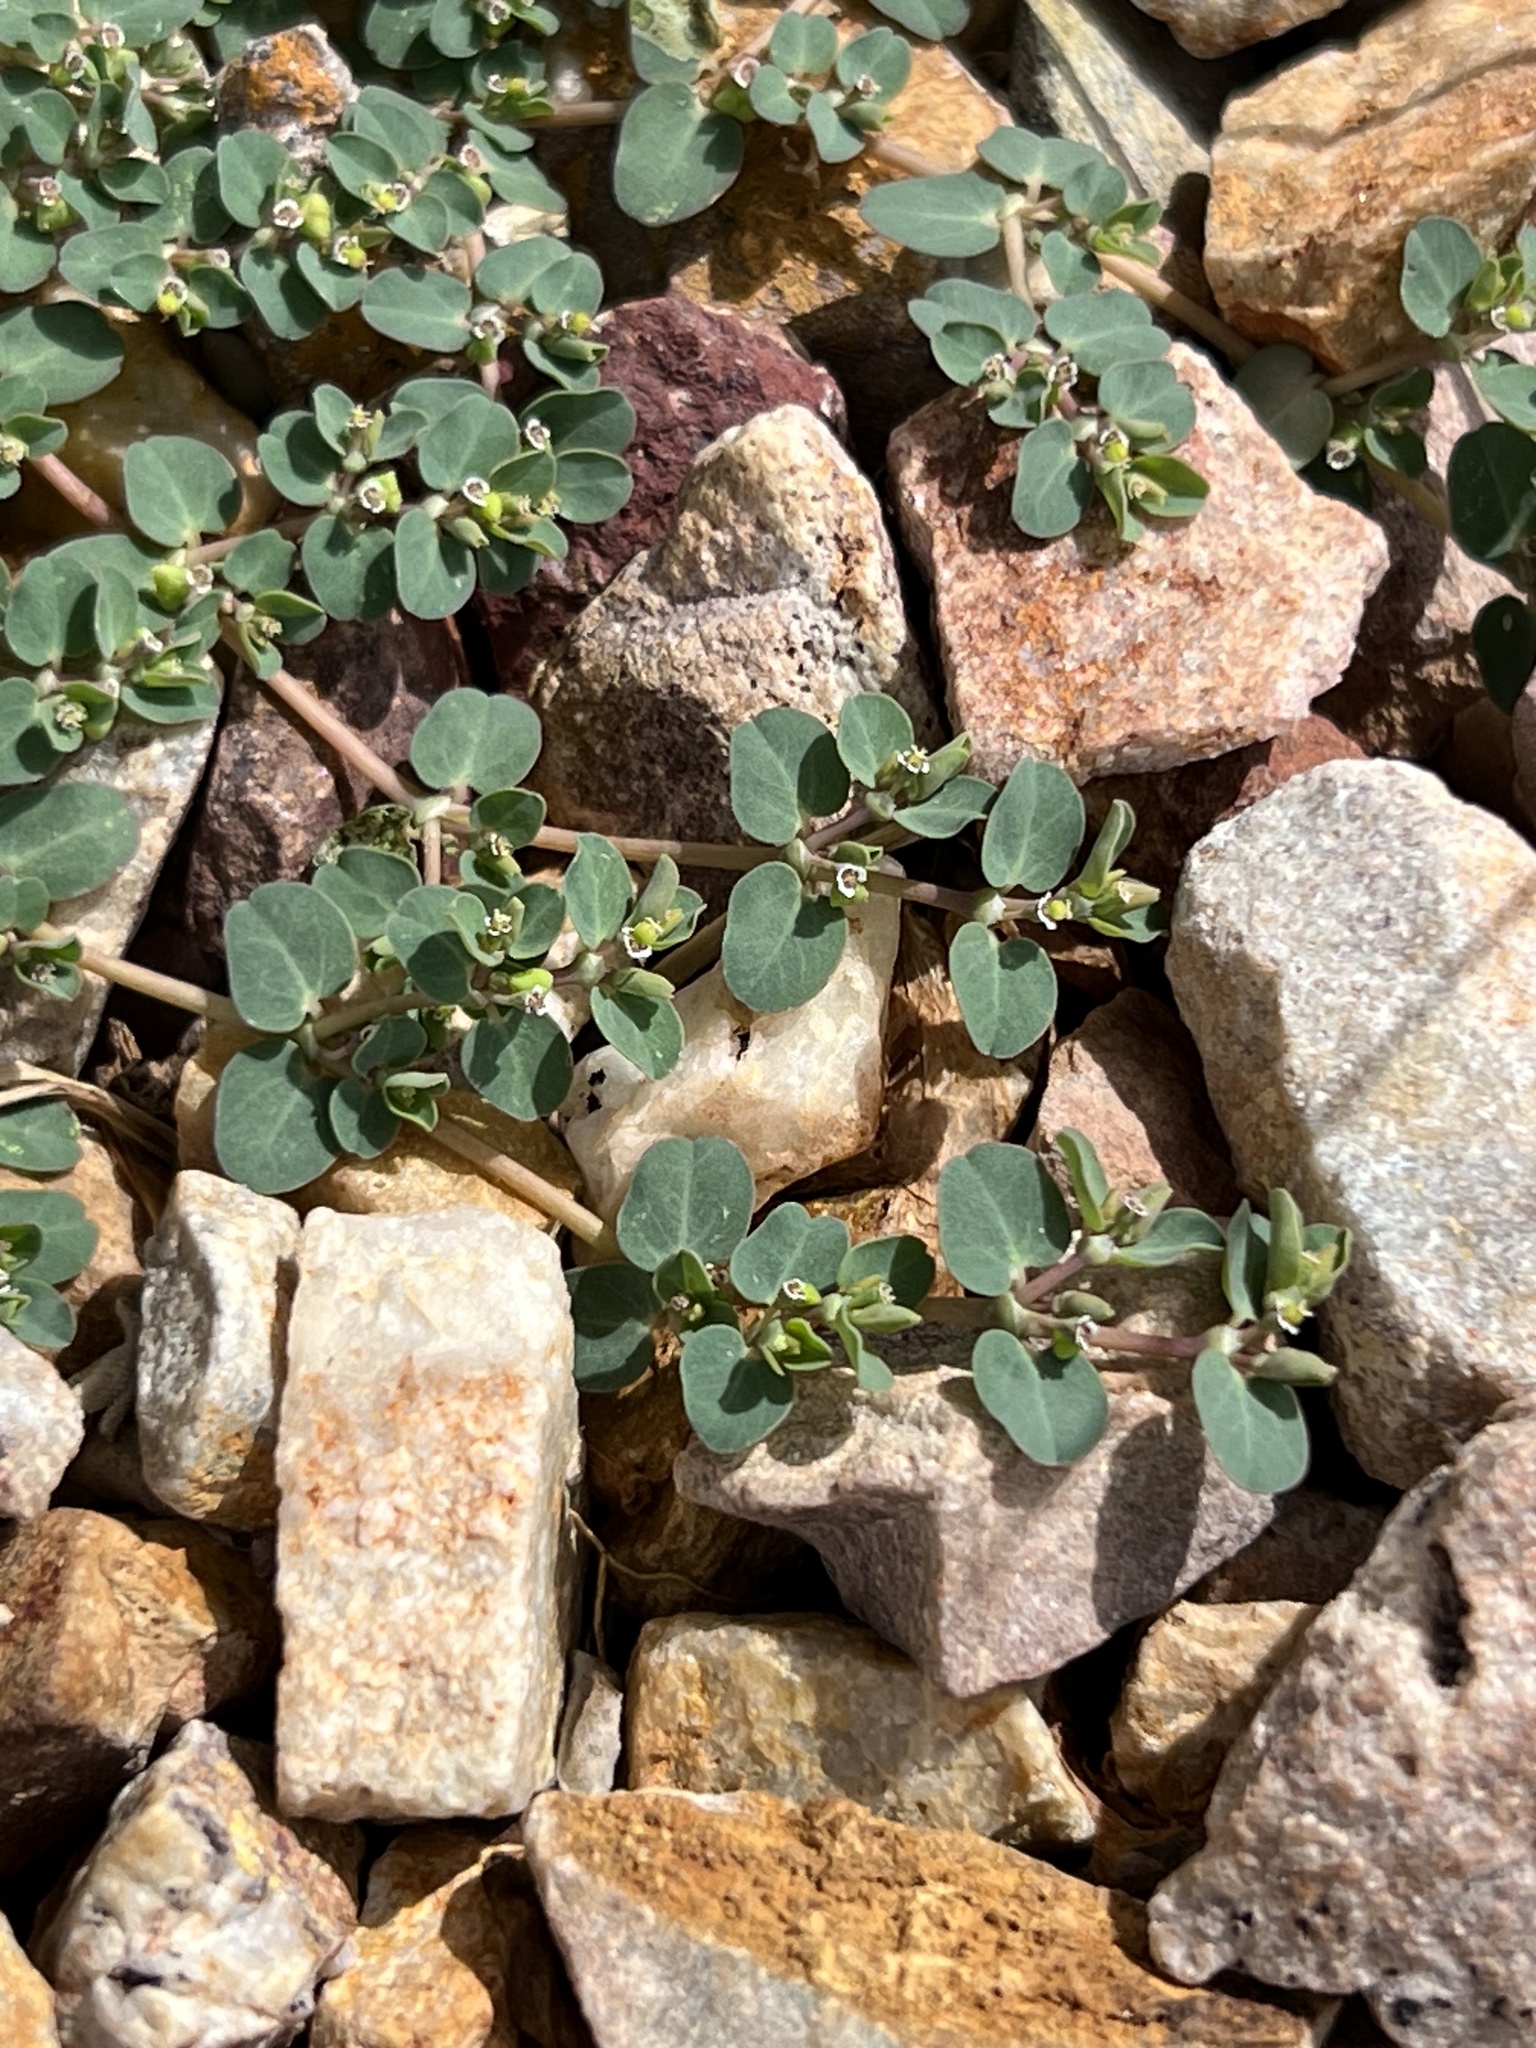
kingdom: Plantae
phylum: Tracheophyta
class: Magnoliopsida
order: Malpighiales
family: Euphorbiaceae
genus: Euphorbia
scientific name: Euphorbia serpens
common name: Matted sandmat
